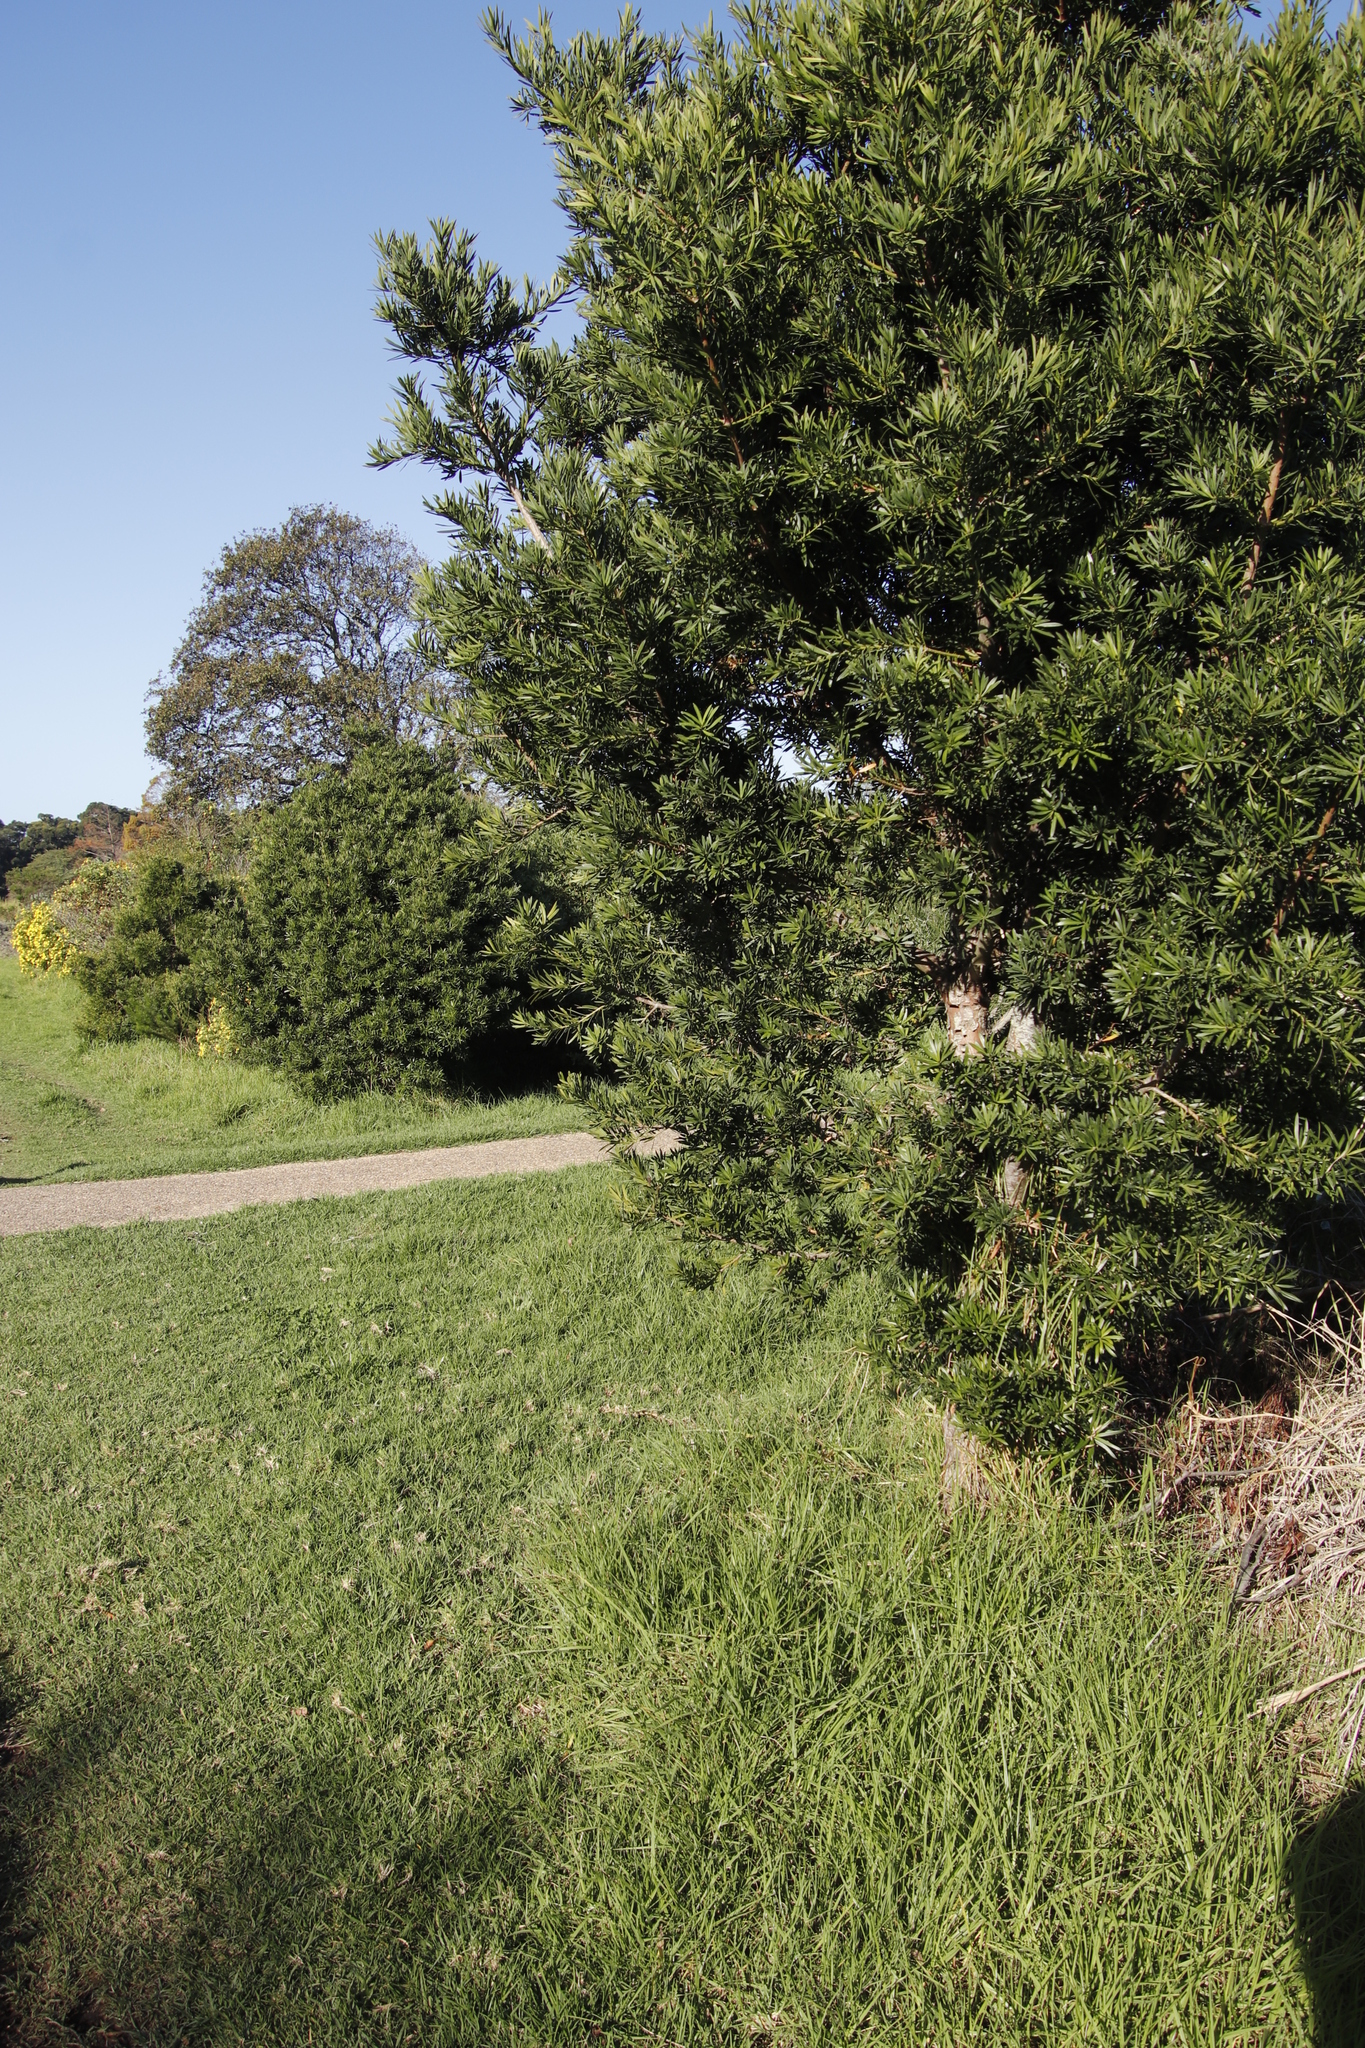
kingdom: Plantae
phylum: Tracheophyta
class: Pinopsida
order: Pinales
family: Podocarpaceae
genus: Podocarpus
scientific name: Podocarpus latifolius
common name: True yellowwood
